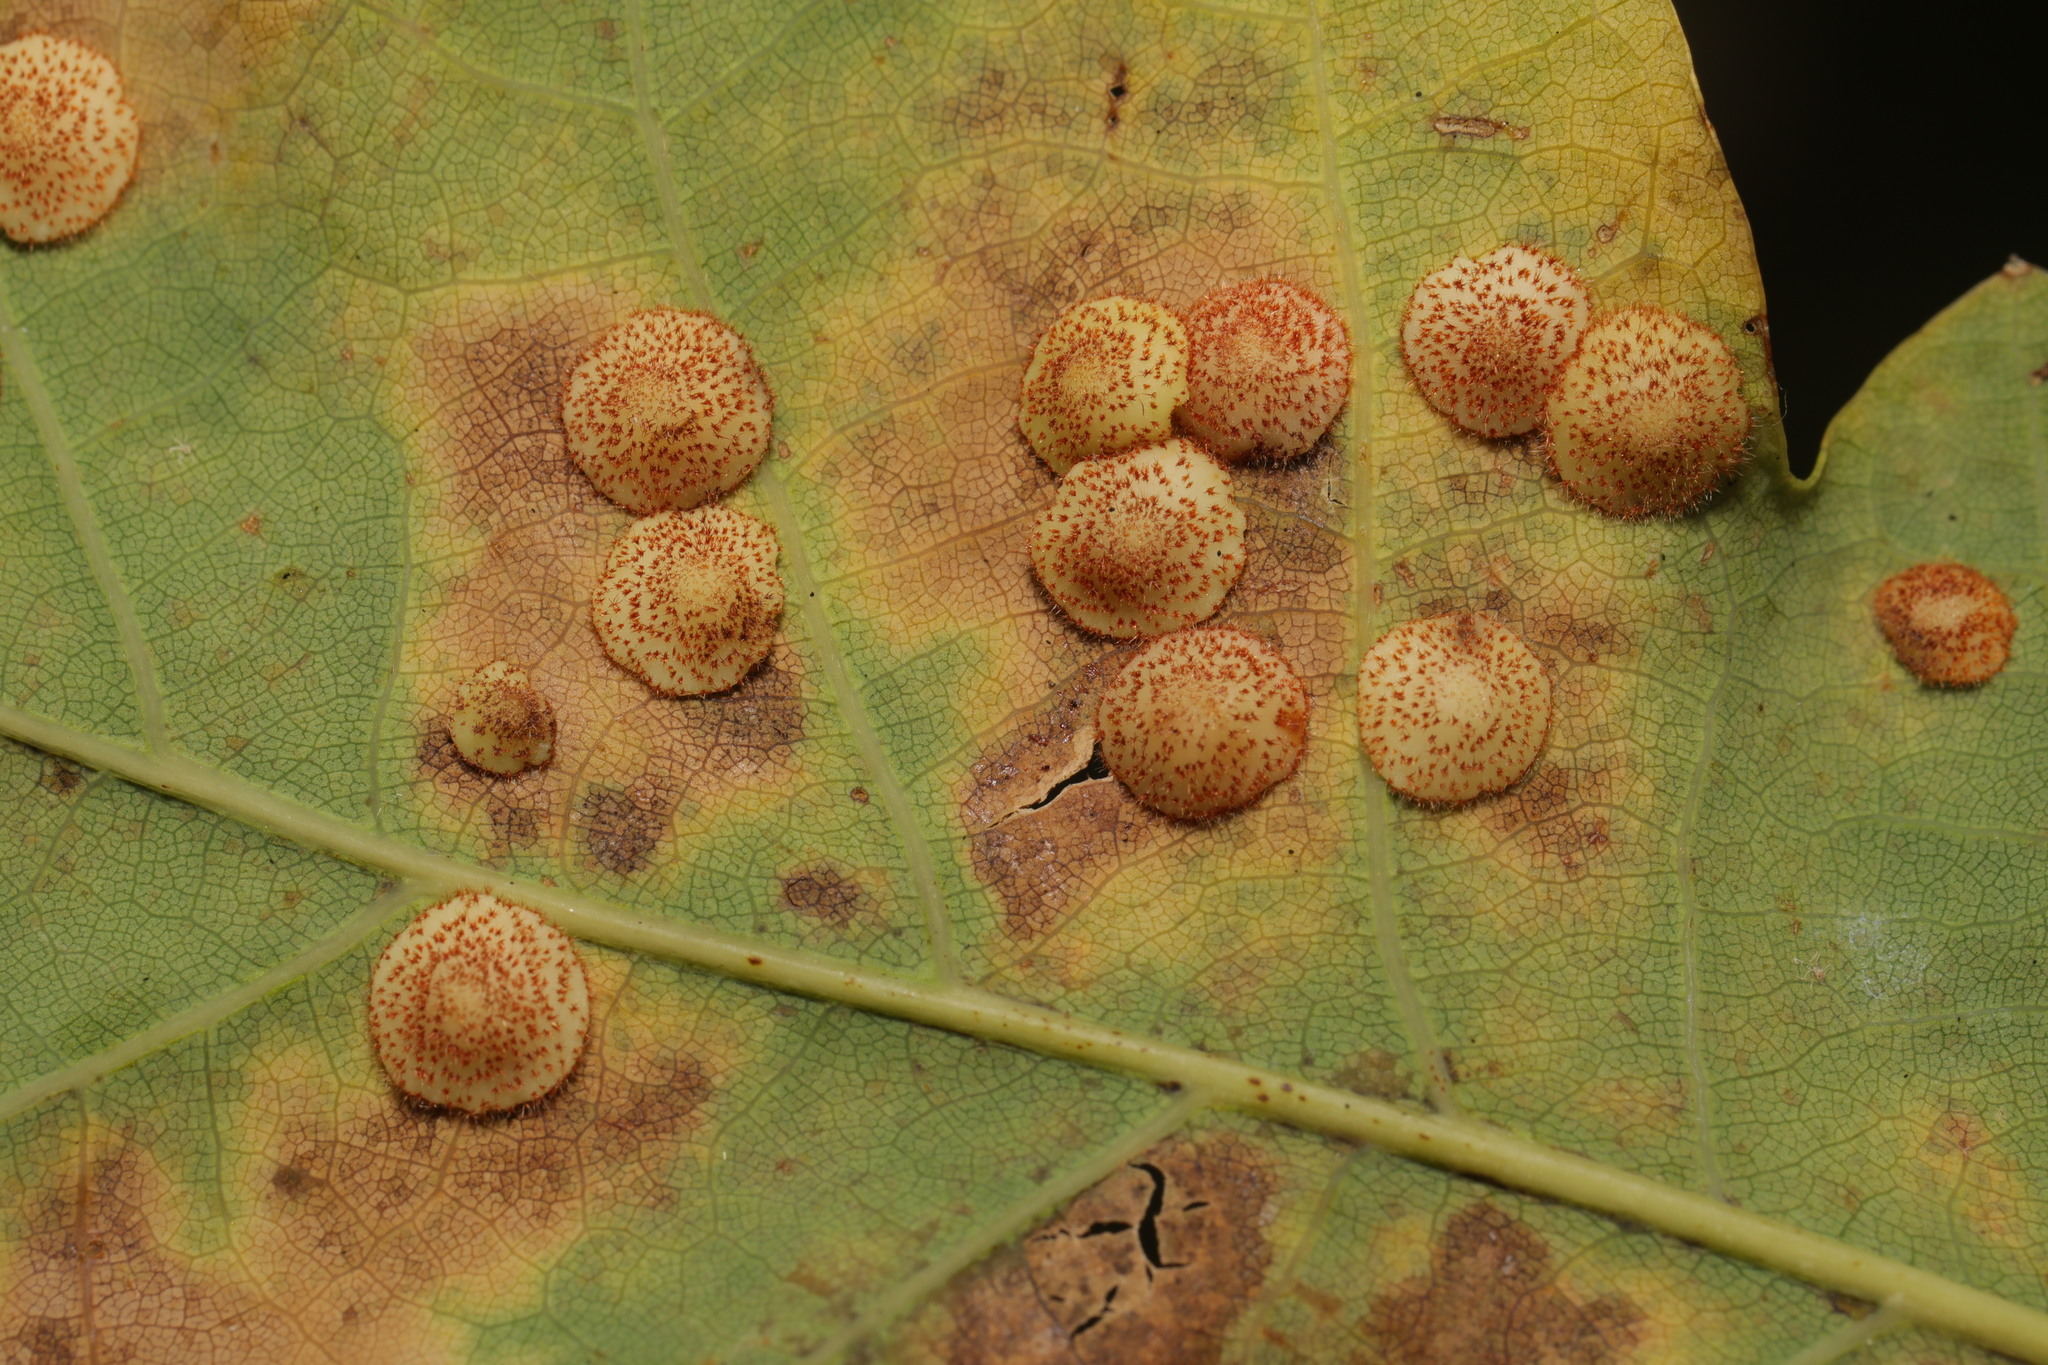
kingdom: Animalia
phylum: Arthropoda
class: Insecta
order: Hymenoptera
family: Cynipidae
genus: Neuroterus
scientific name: Neuroterus quercusbaccarum
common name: Common spangle gall
